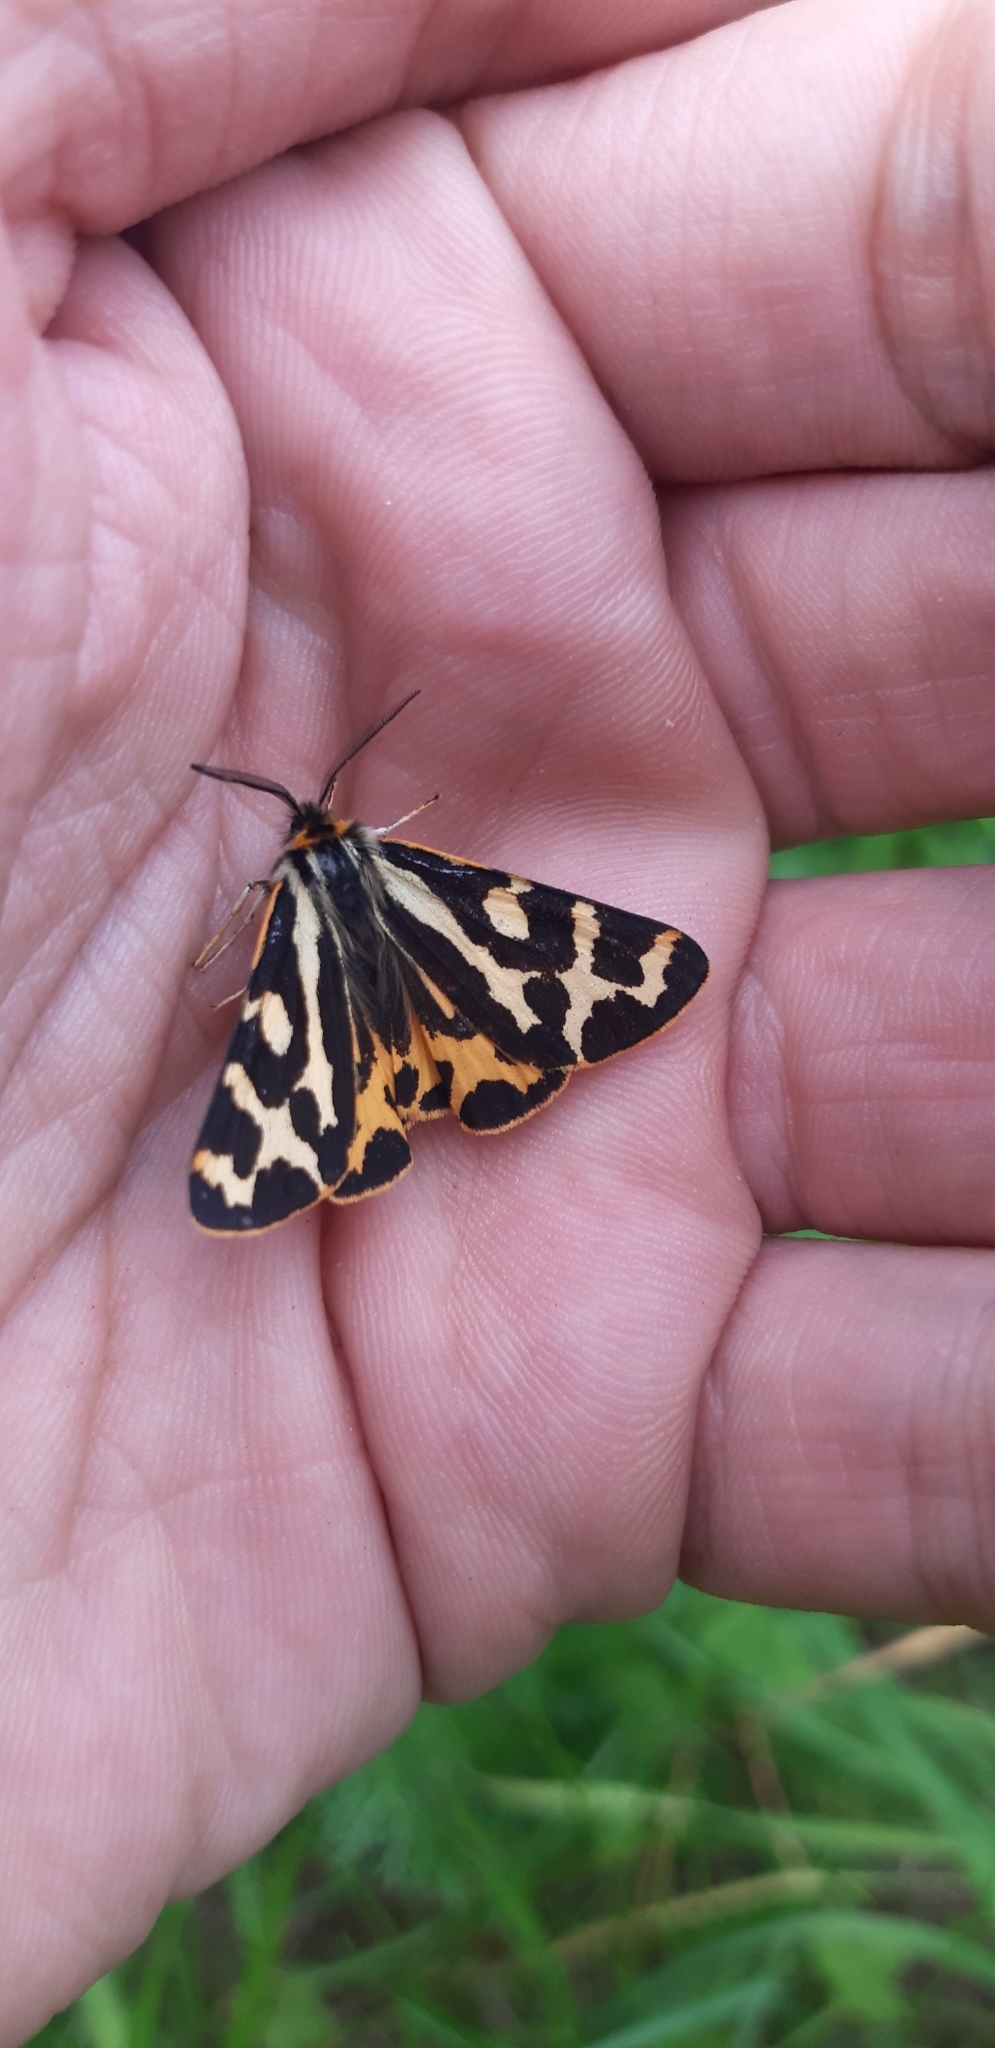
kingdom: Animalia
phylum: Arthropoda
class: Insecta
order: Lepidoptera
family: Erebidae
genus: Parasemia
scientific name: Parasemia plantaginis
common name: Wood tiger
